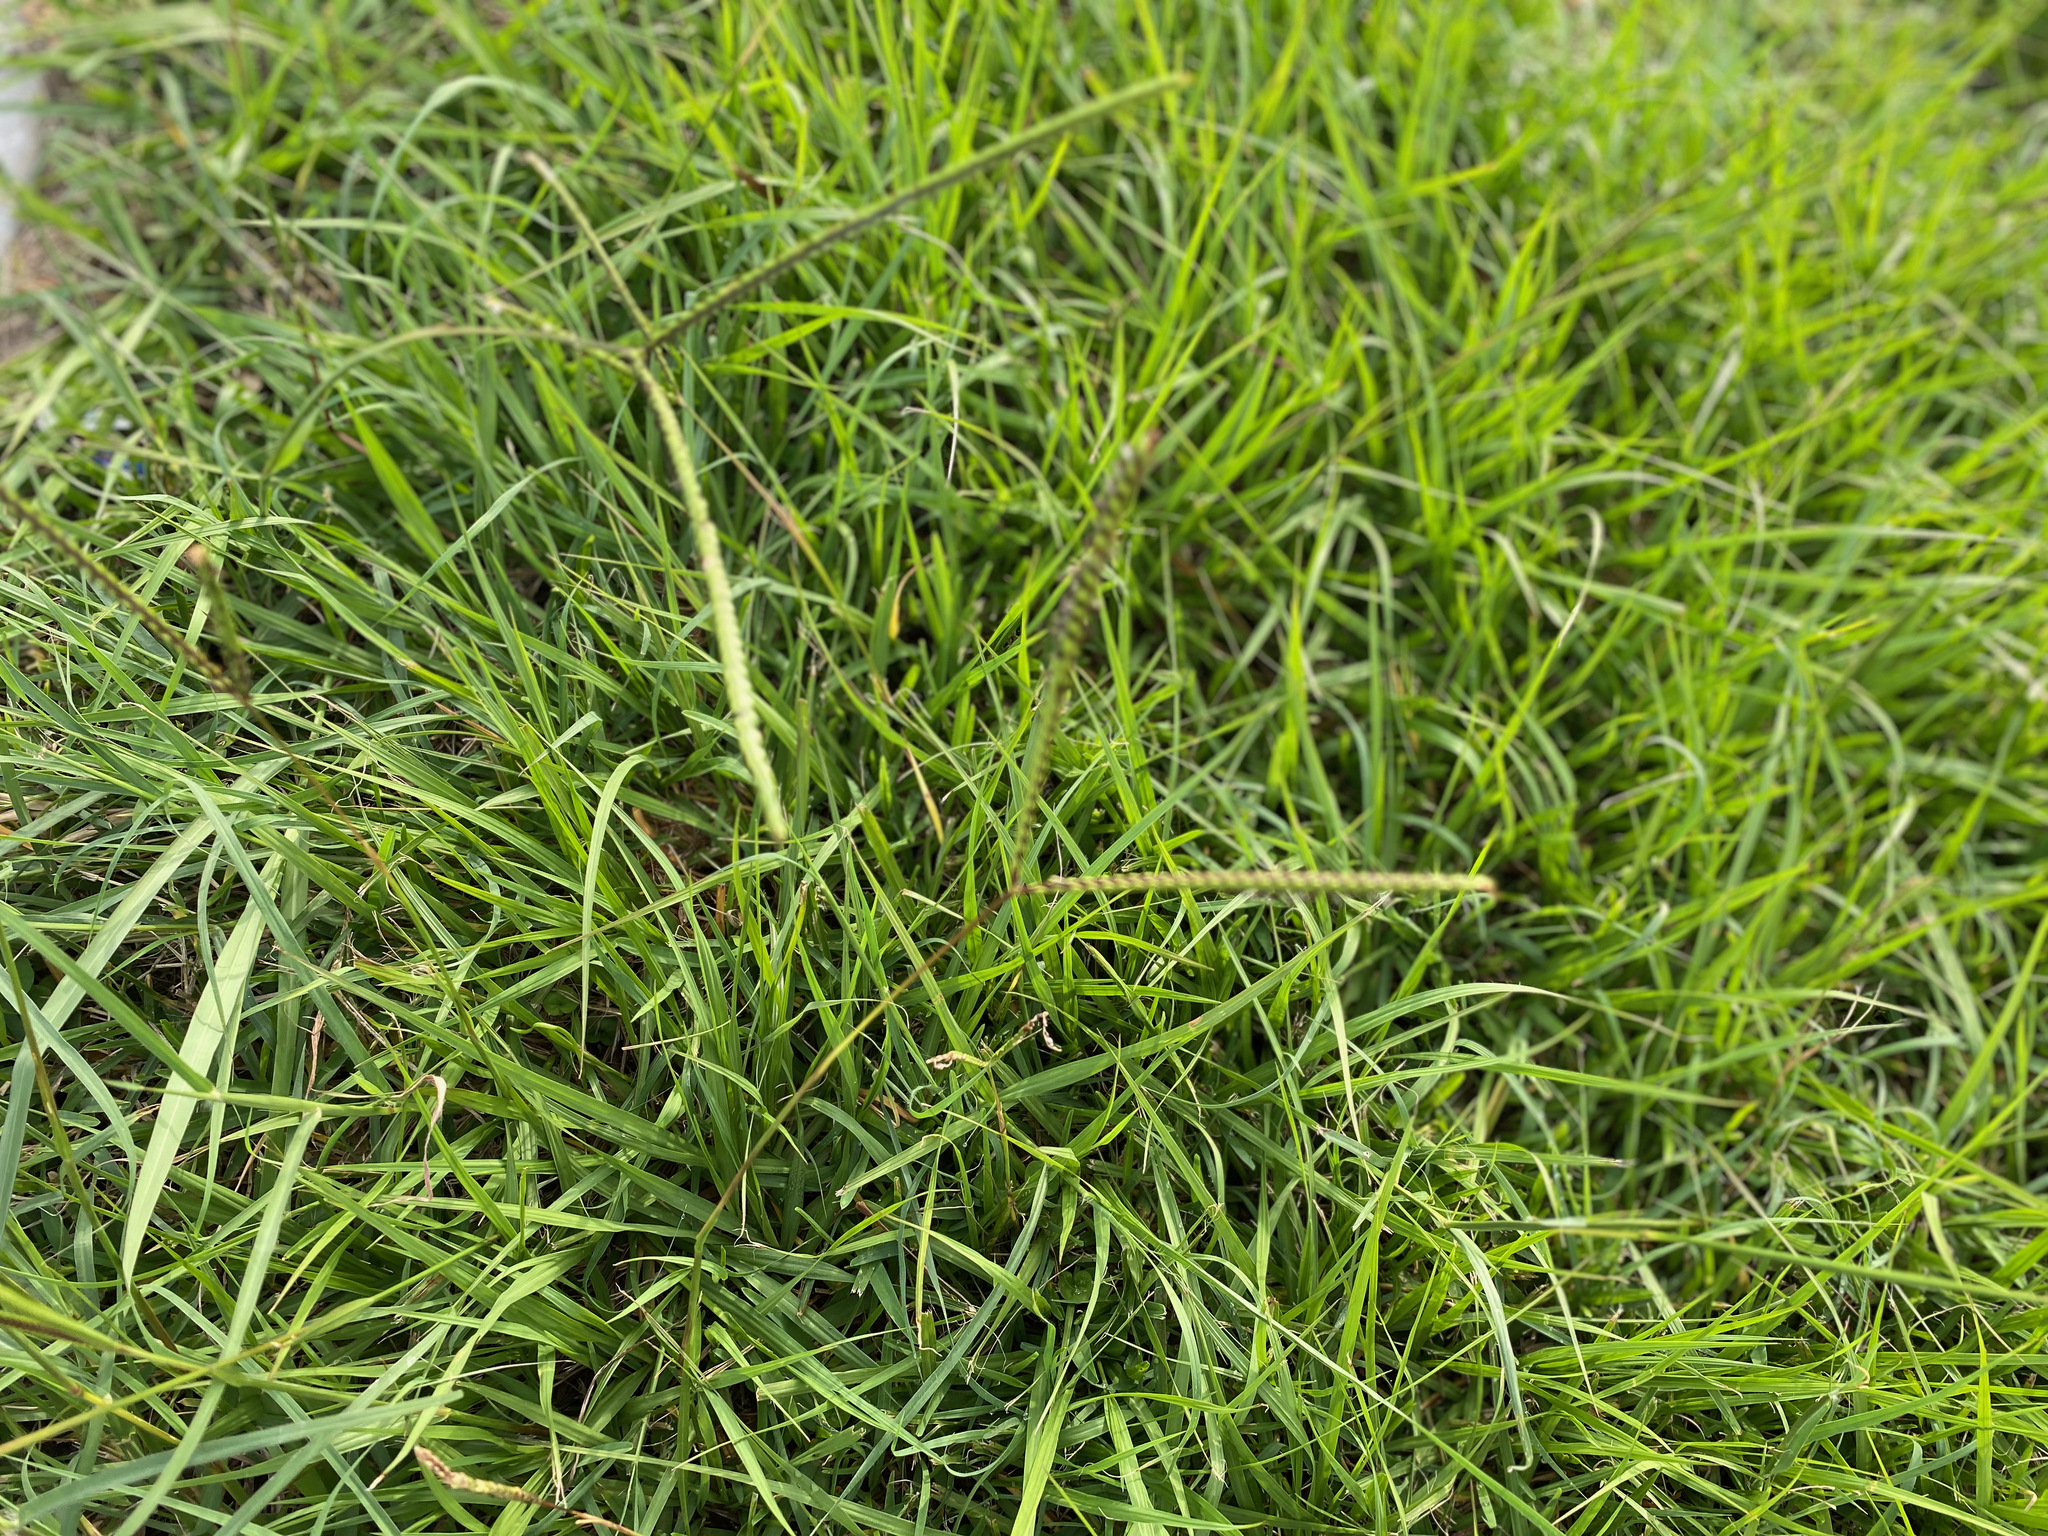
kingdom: Plantae
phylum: Tracheophyta
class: Liliopsida
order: Poales
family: Poaceae
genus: Paspalum
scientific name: Paspalum notatum
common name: Bahiagrass
